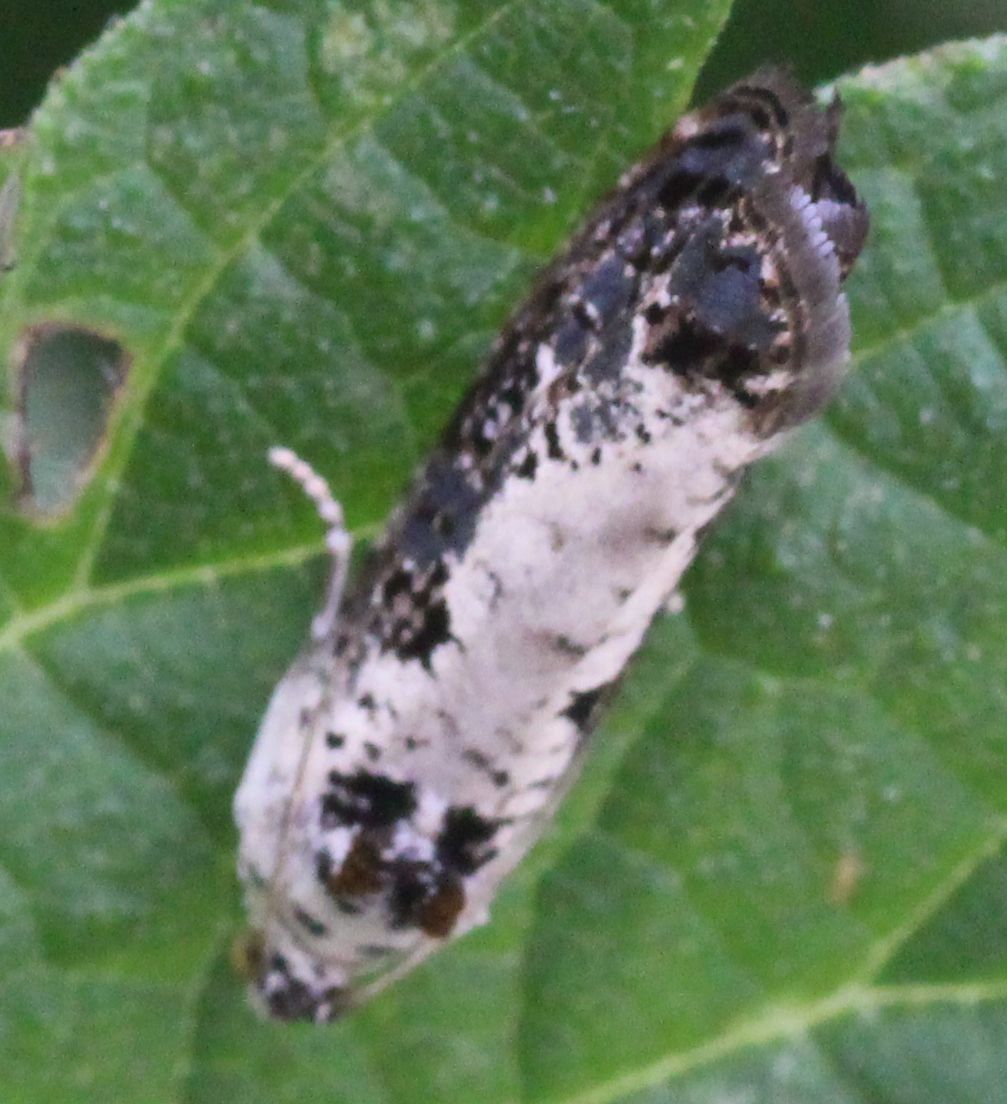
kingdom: Animalia
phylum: Arthropoda
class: Insecta
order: Lepidoptera
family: Tortricidae
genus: Hedya
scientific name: Hedya salicella
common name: Large tortricid moth
